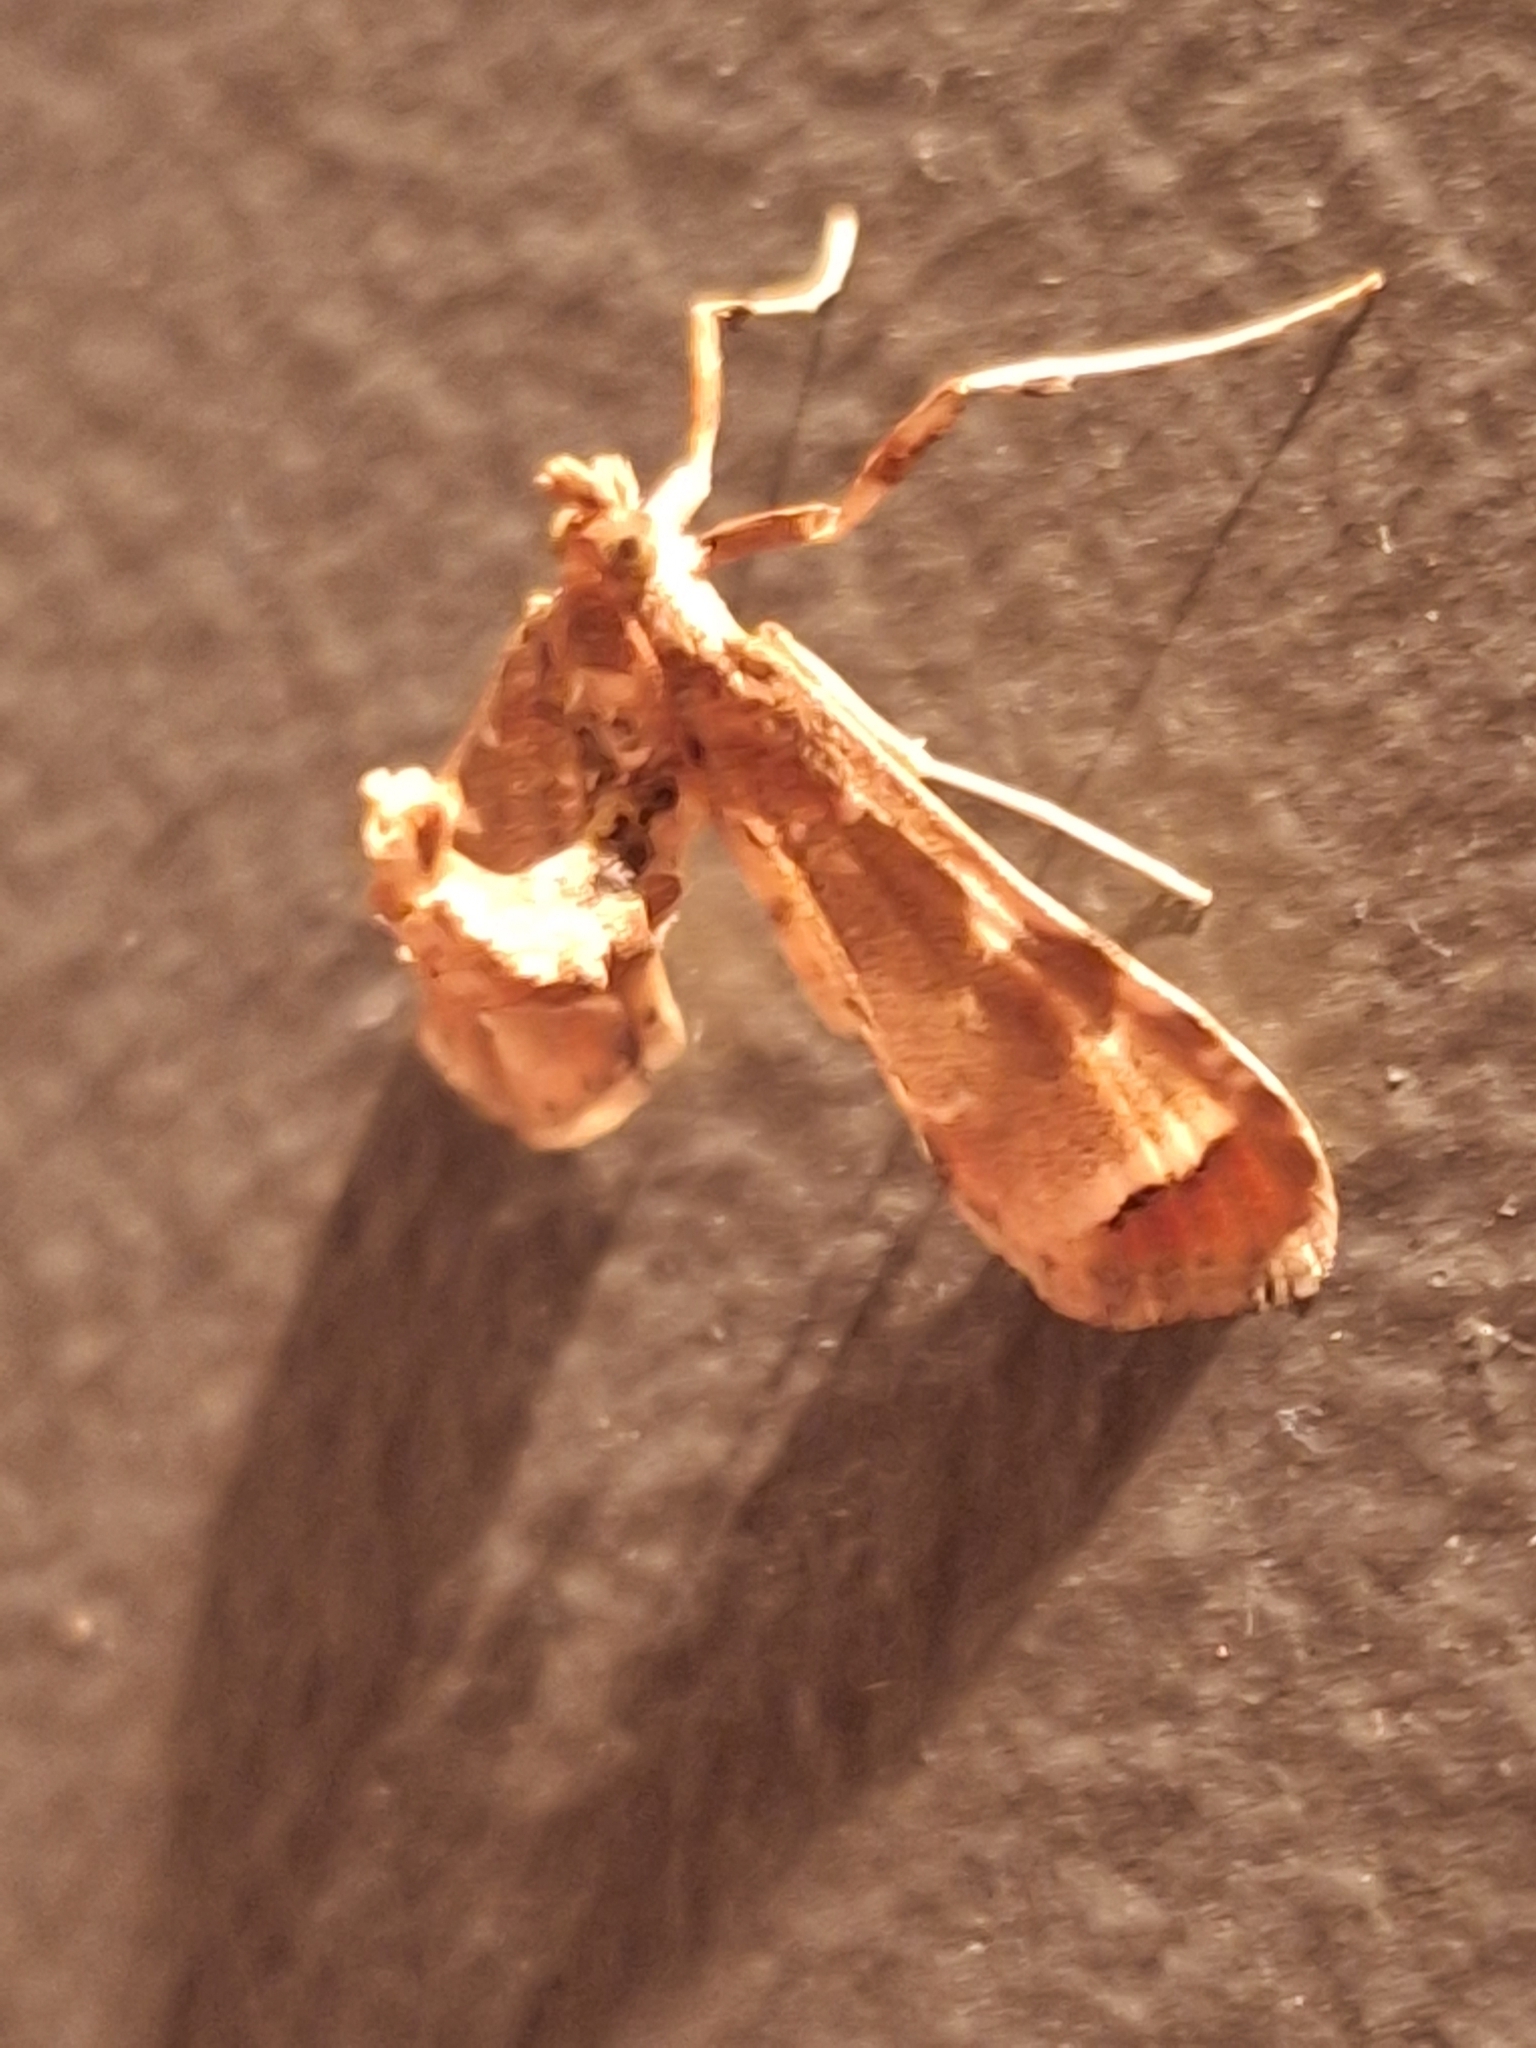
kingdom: Animalia
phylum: Arthropoda
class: Insecta
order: Lepidoptera
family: Crambidae
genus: Sceliodes
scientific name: Sceliodes cordalis
